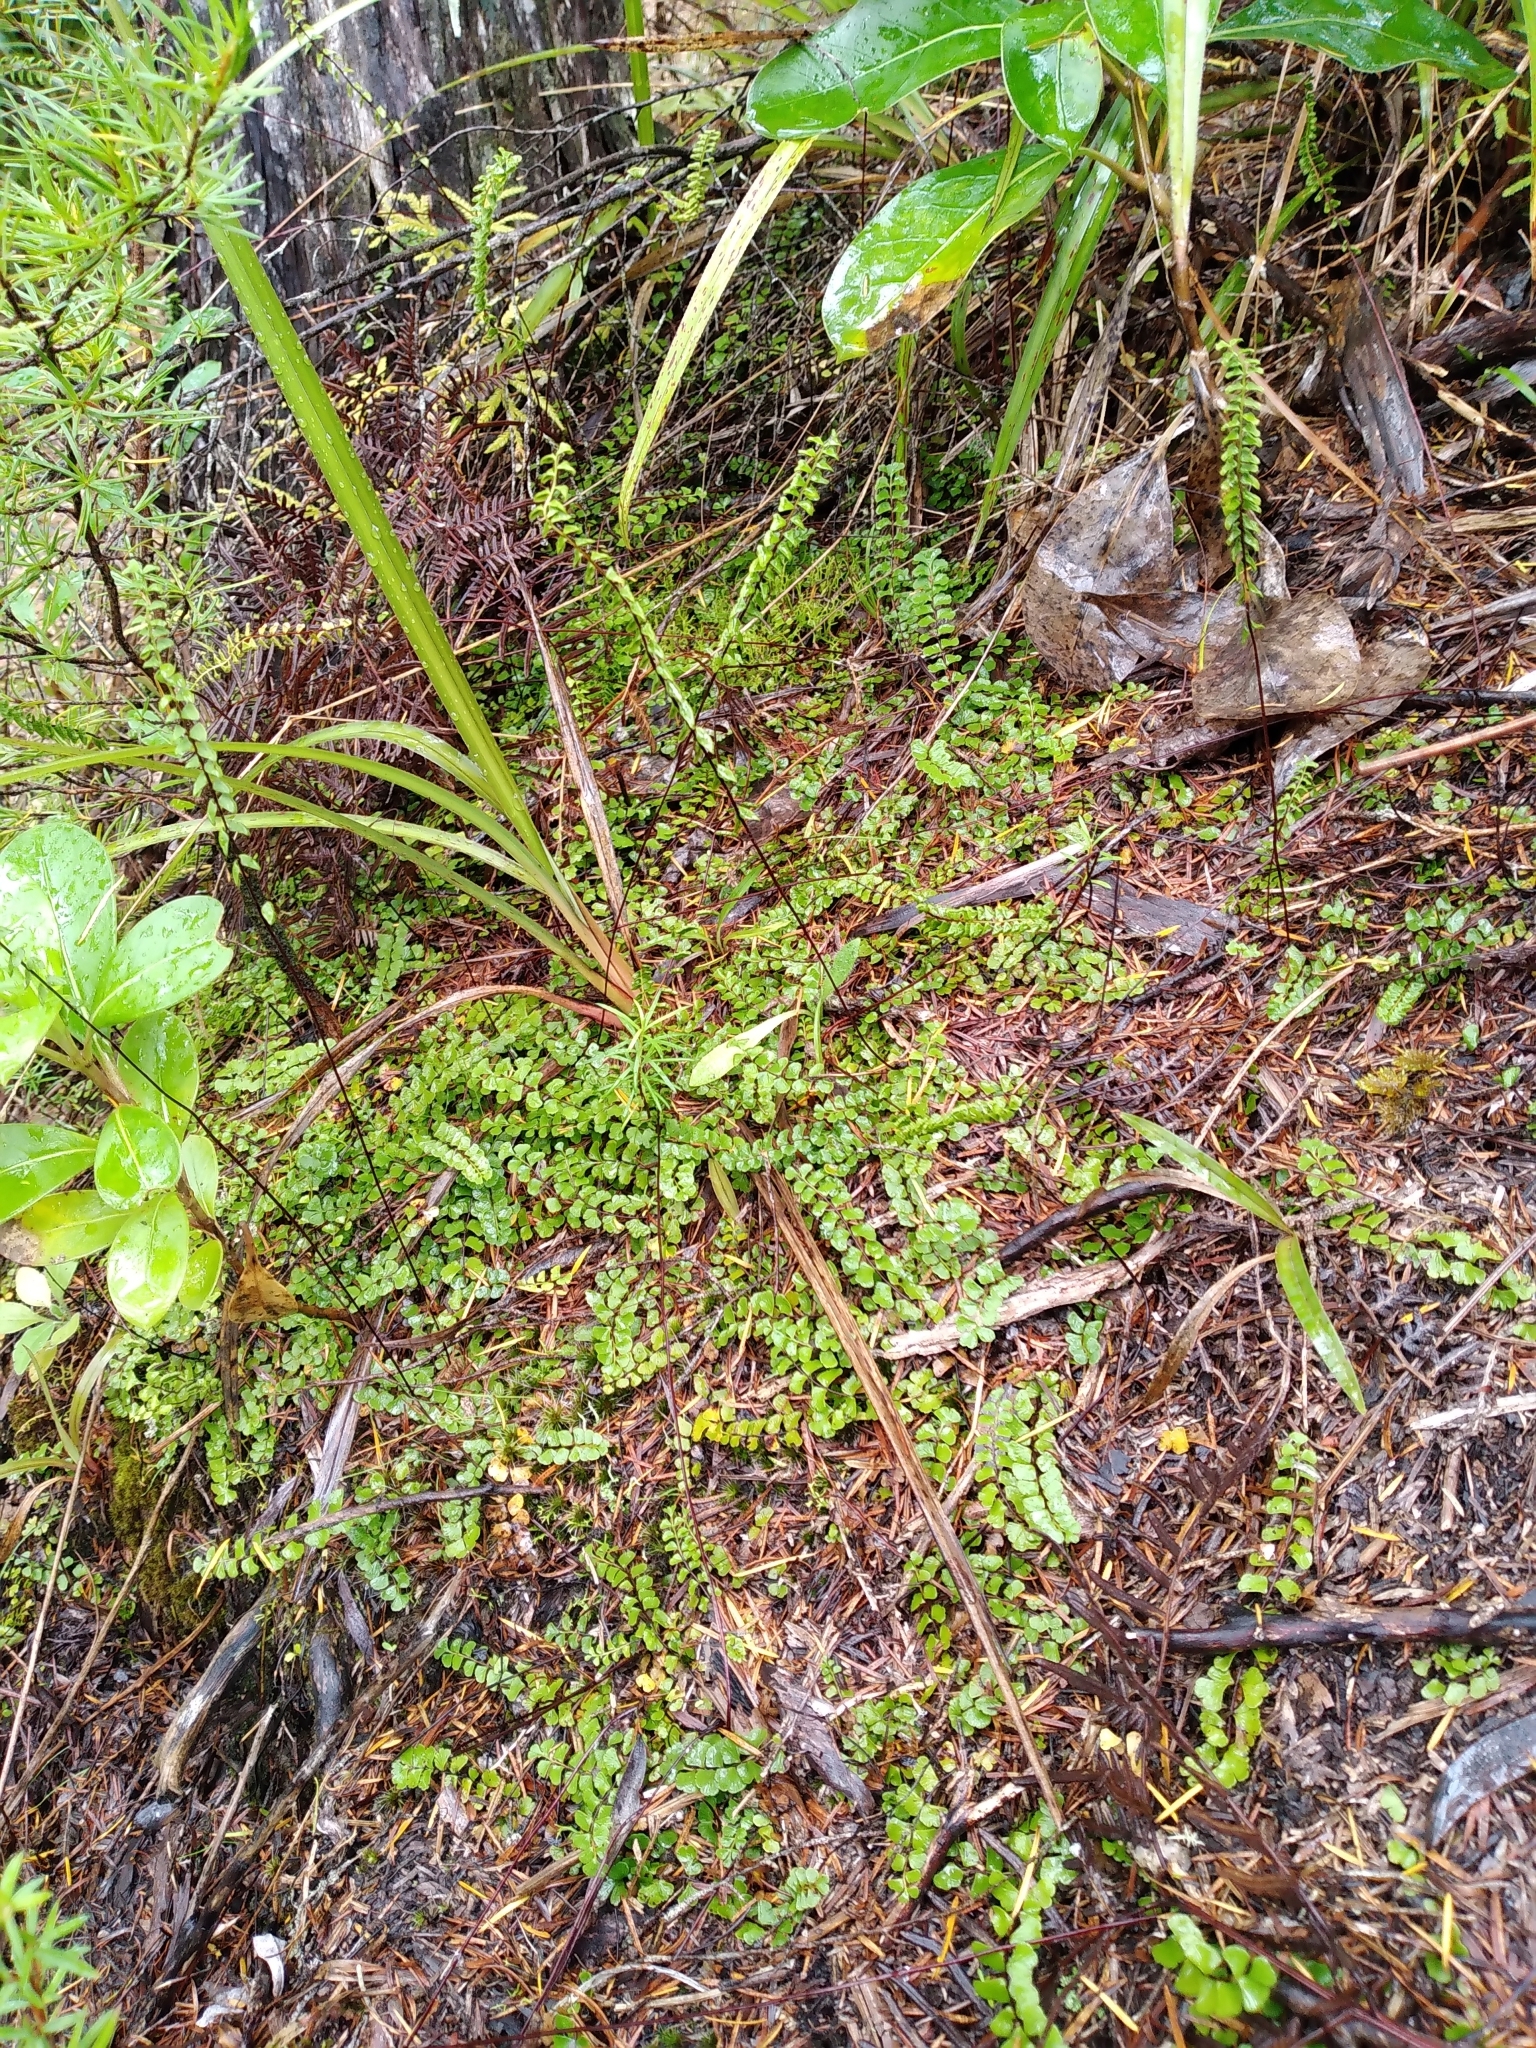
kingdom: Plantae
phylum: Tracheophyta
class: Polypodiopsida
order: Polypodiales
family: Lindsaeaceae
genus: Lindsaea
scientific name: Lindsaea linearis
